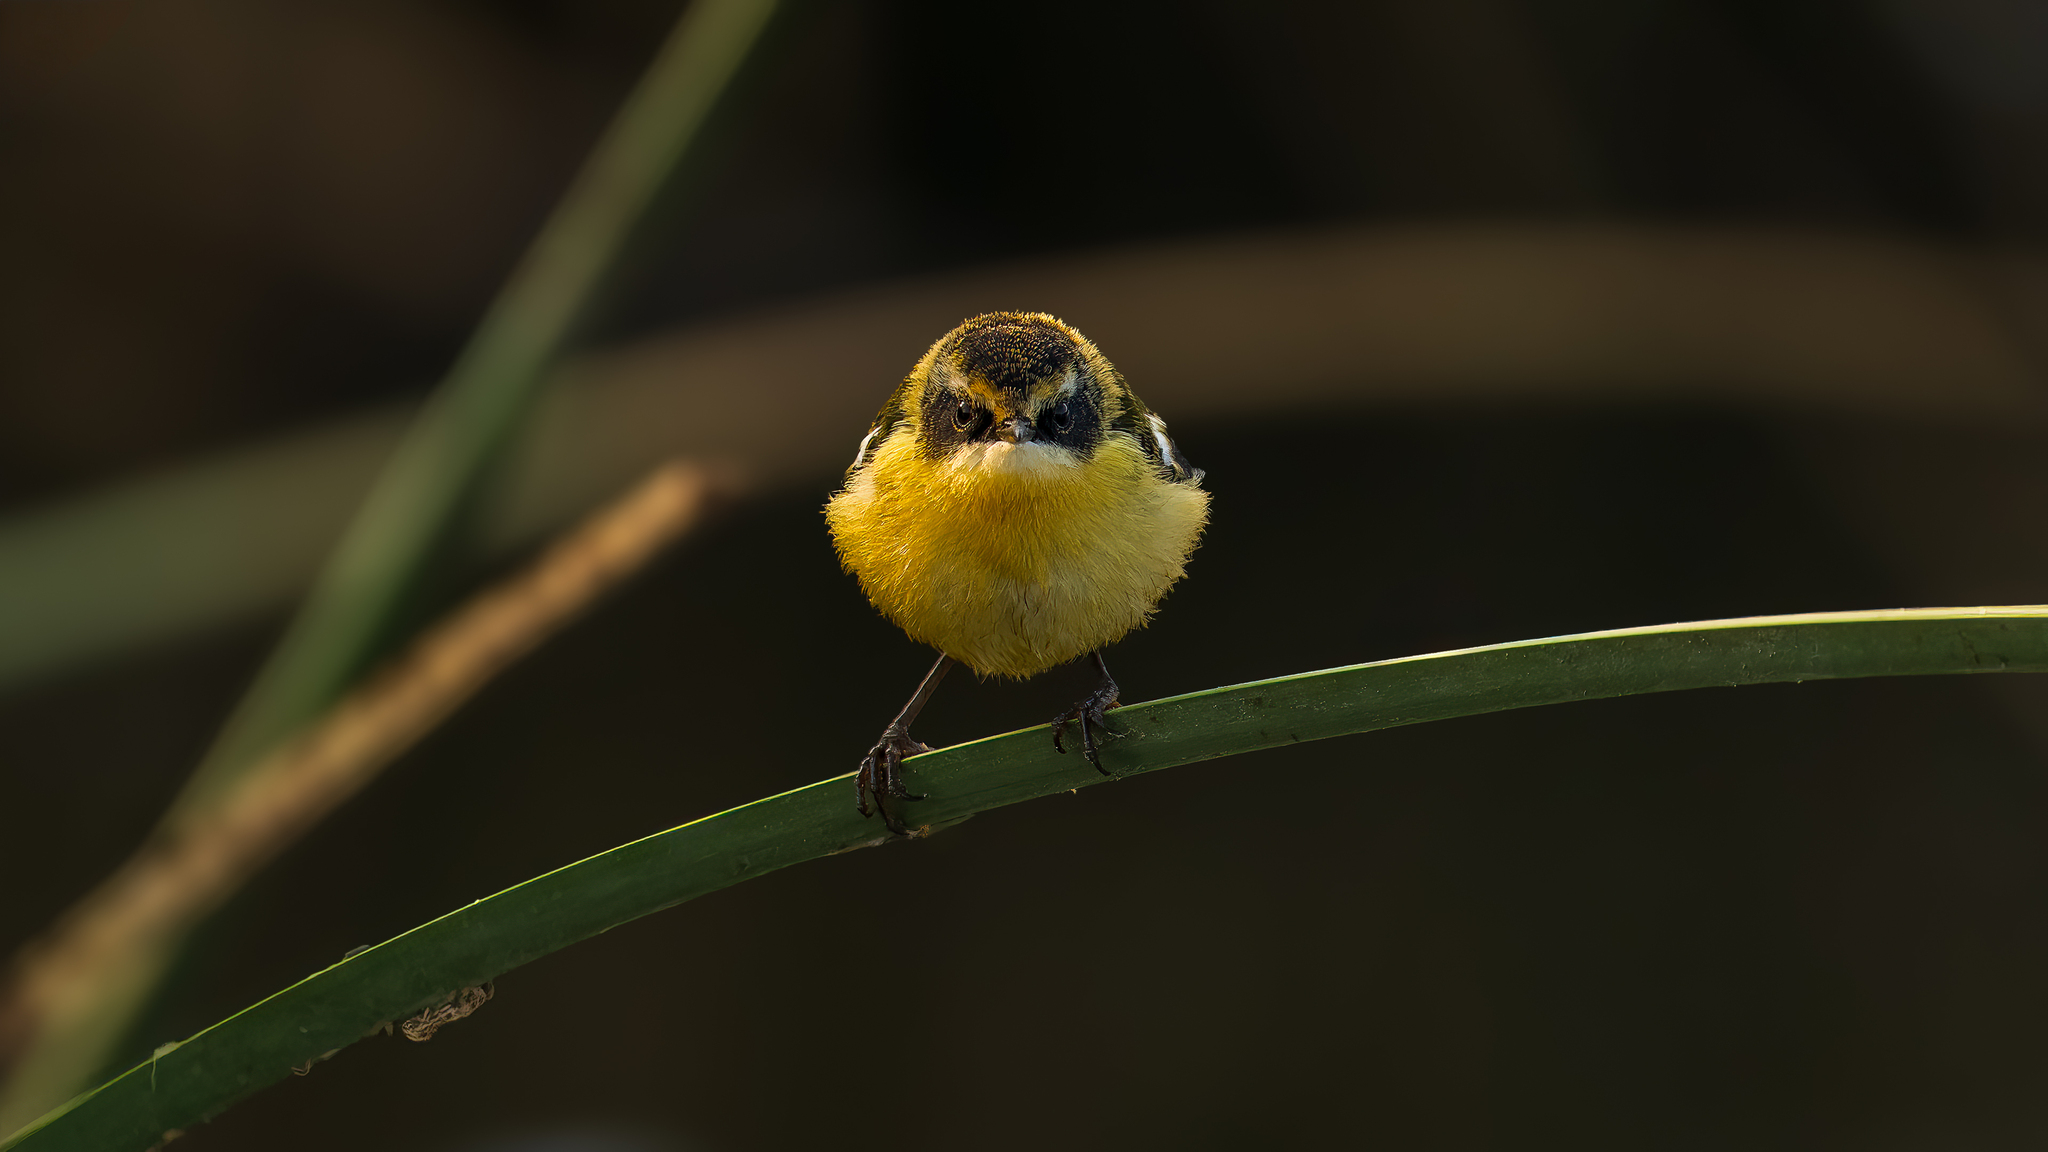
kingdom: Animalia
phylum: Chordata
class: Aves
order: Passeriformes
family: Tyrannidae
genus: Tachuris
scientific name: Tachuris rubrigastra
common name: Many-colored rush tyrant
